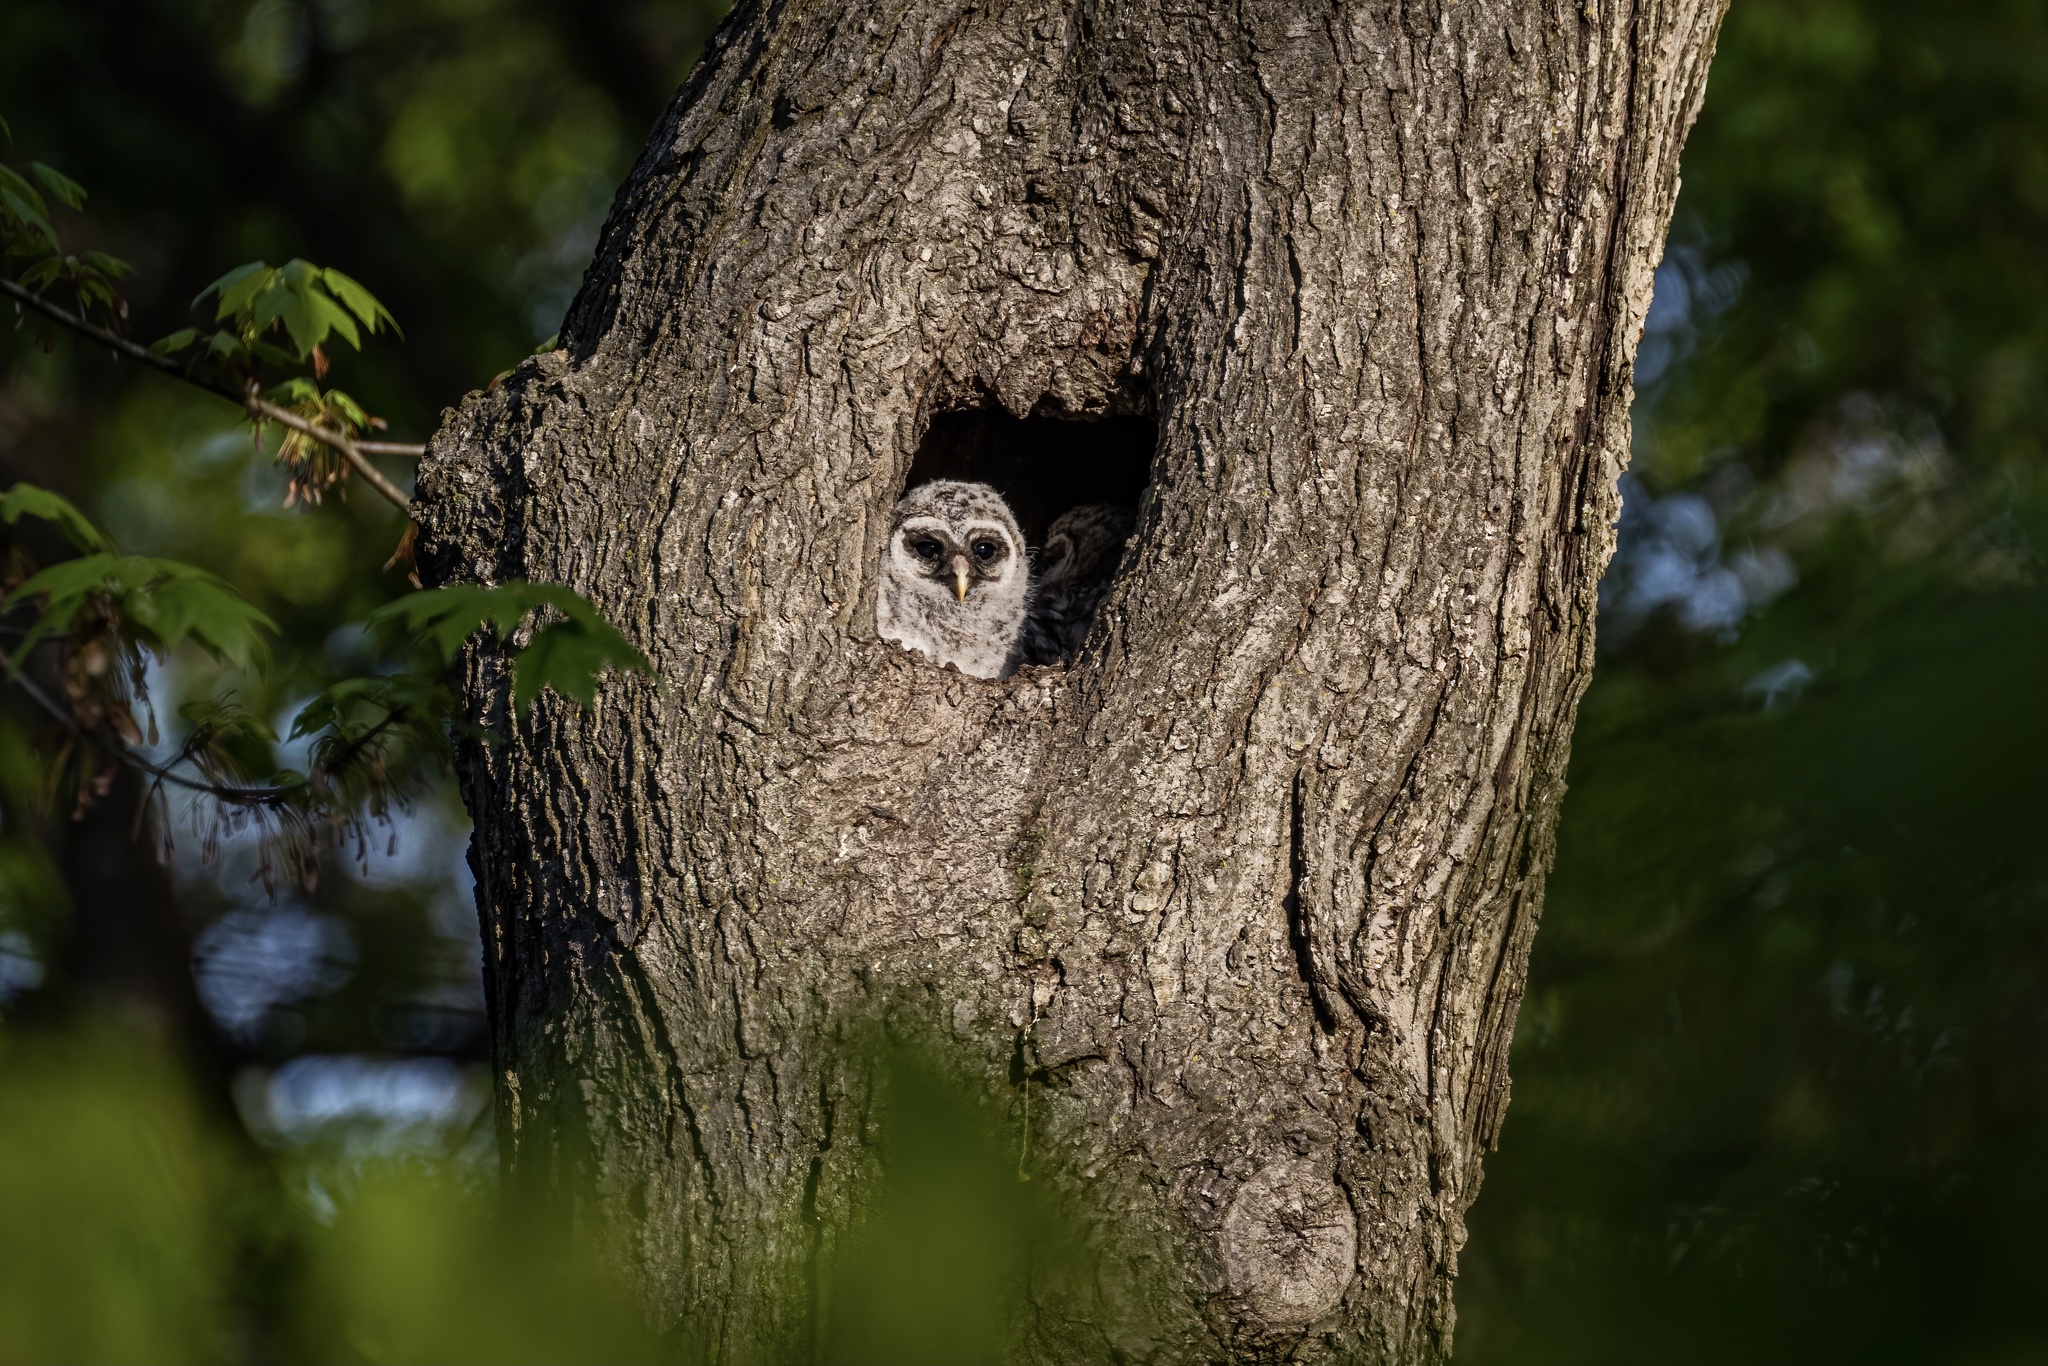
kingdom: Animalia
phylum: Chordata
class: Aves
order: Strigiformes
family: Strigidae
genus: Strix
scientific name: Strix varia
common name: Barred owl
